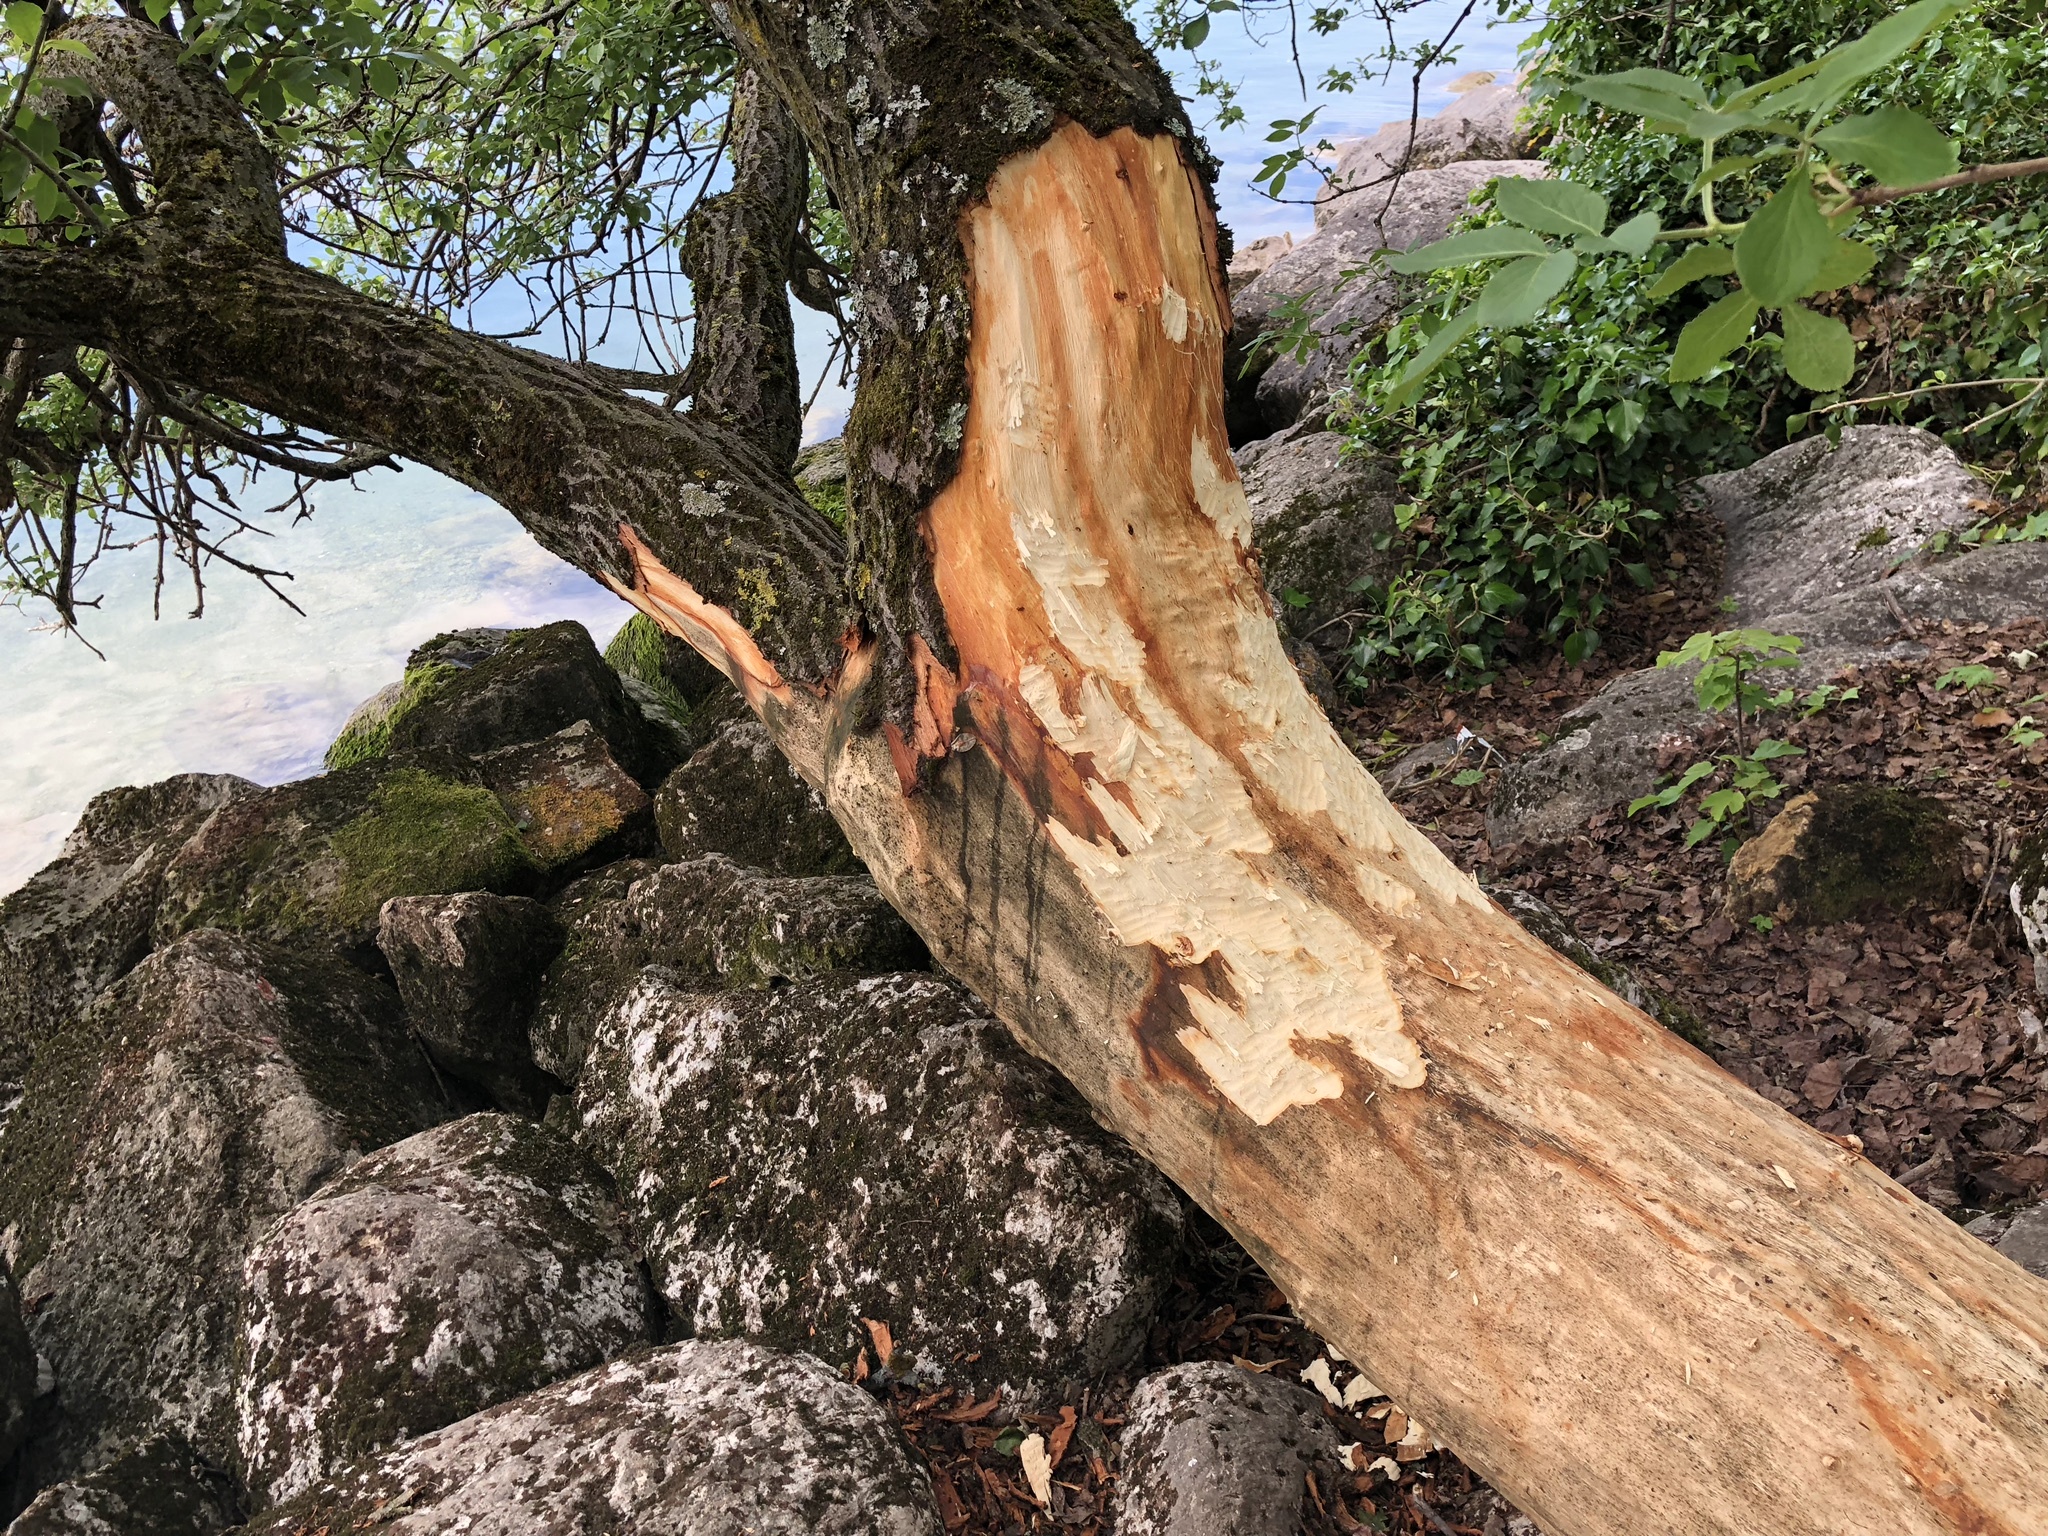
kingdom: Animalia
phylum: Chordata
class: Mammalia
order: Rodentia
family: Castoridae
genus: Castor
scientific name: Castor fiber
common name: Eurasian beaver
